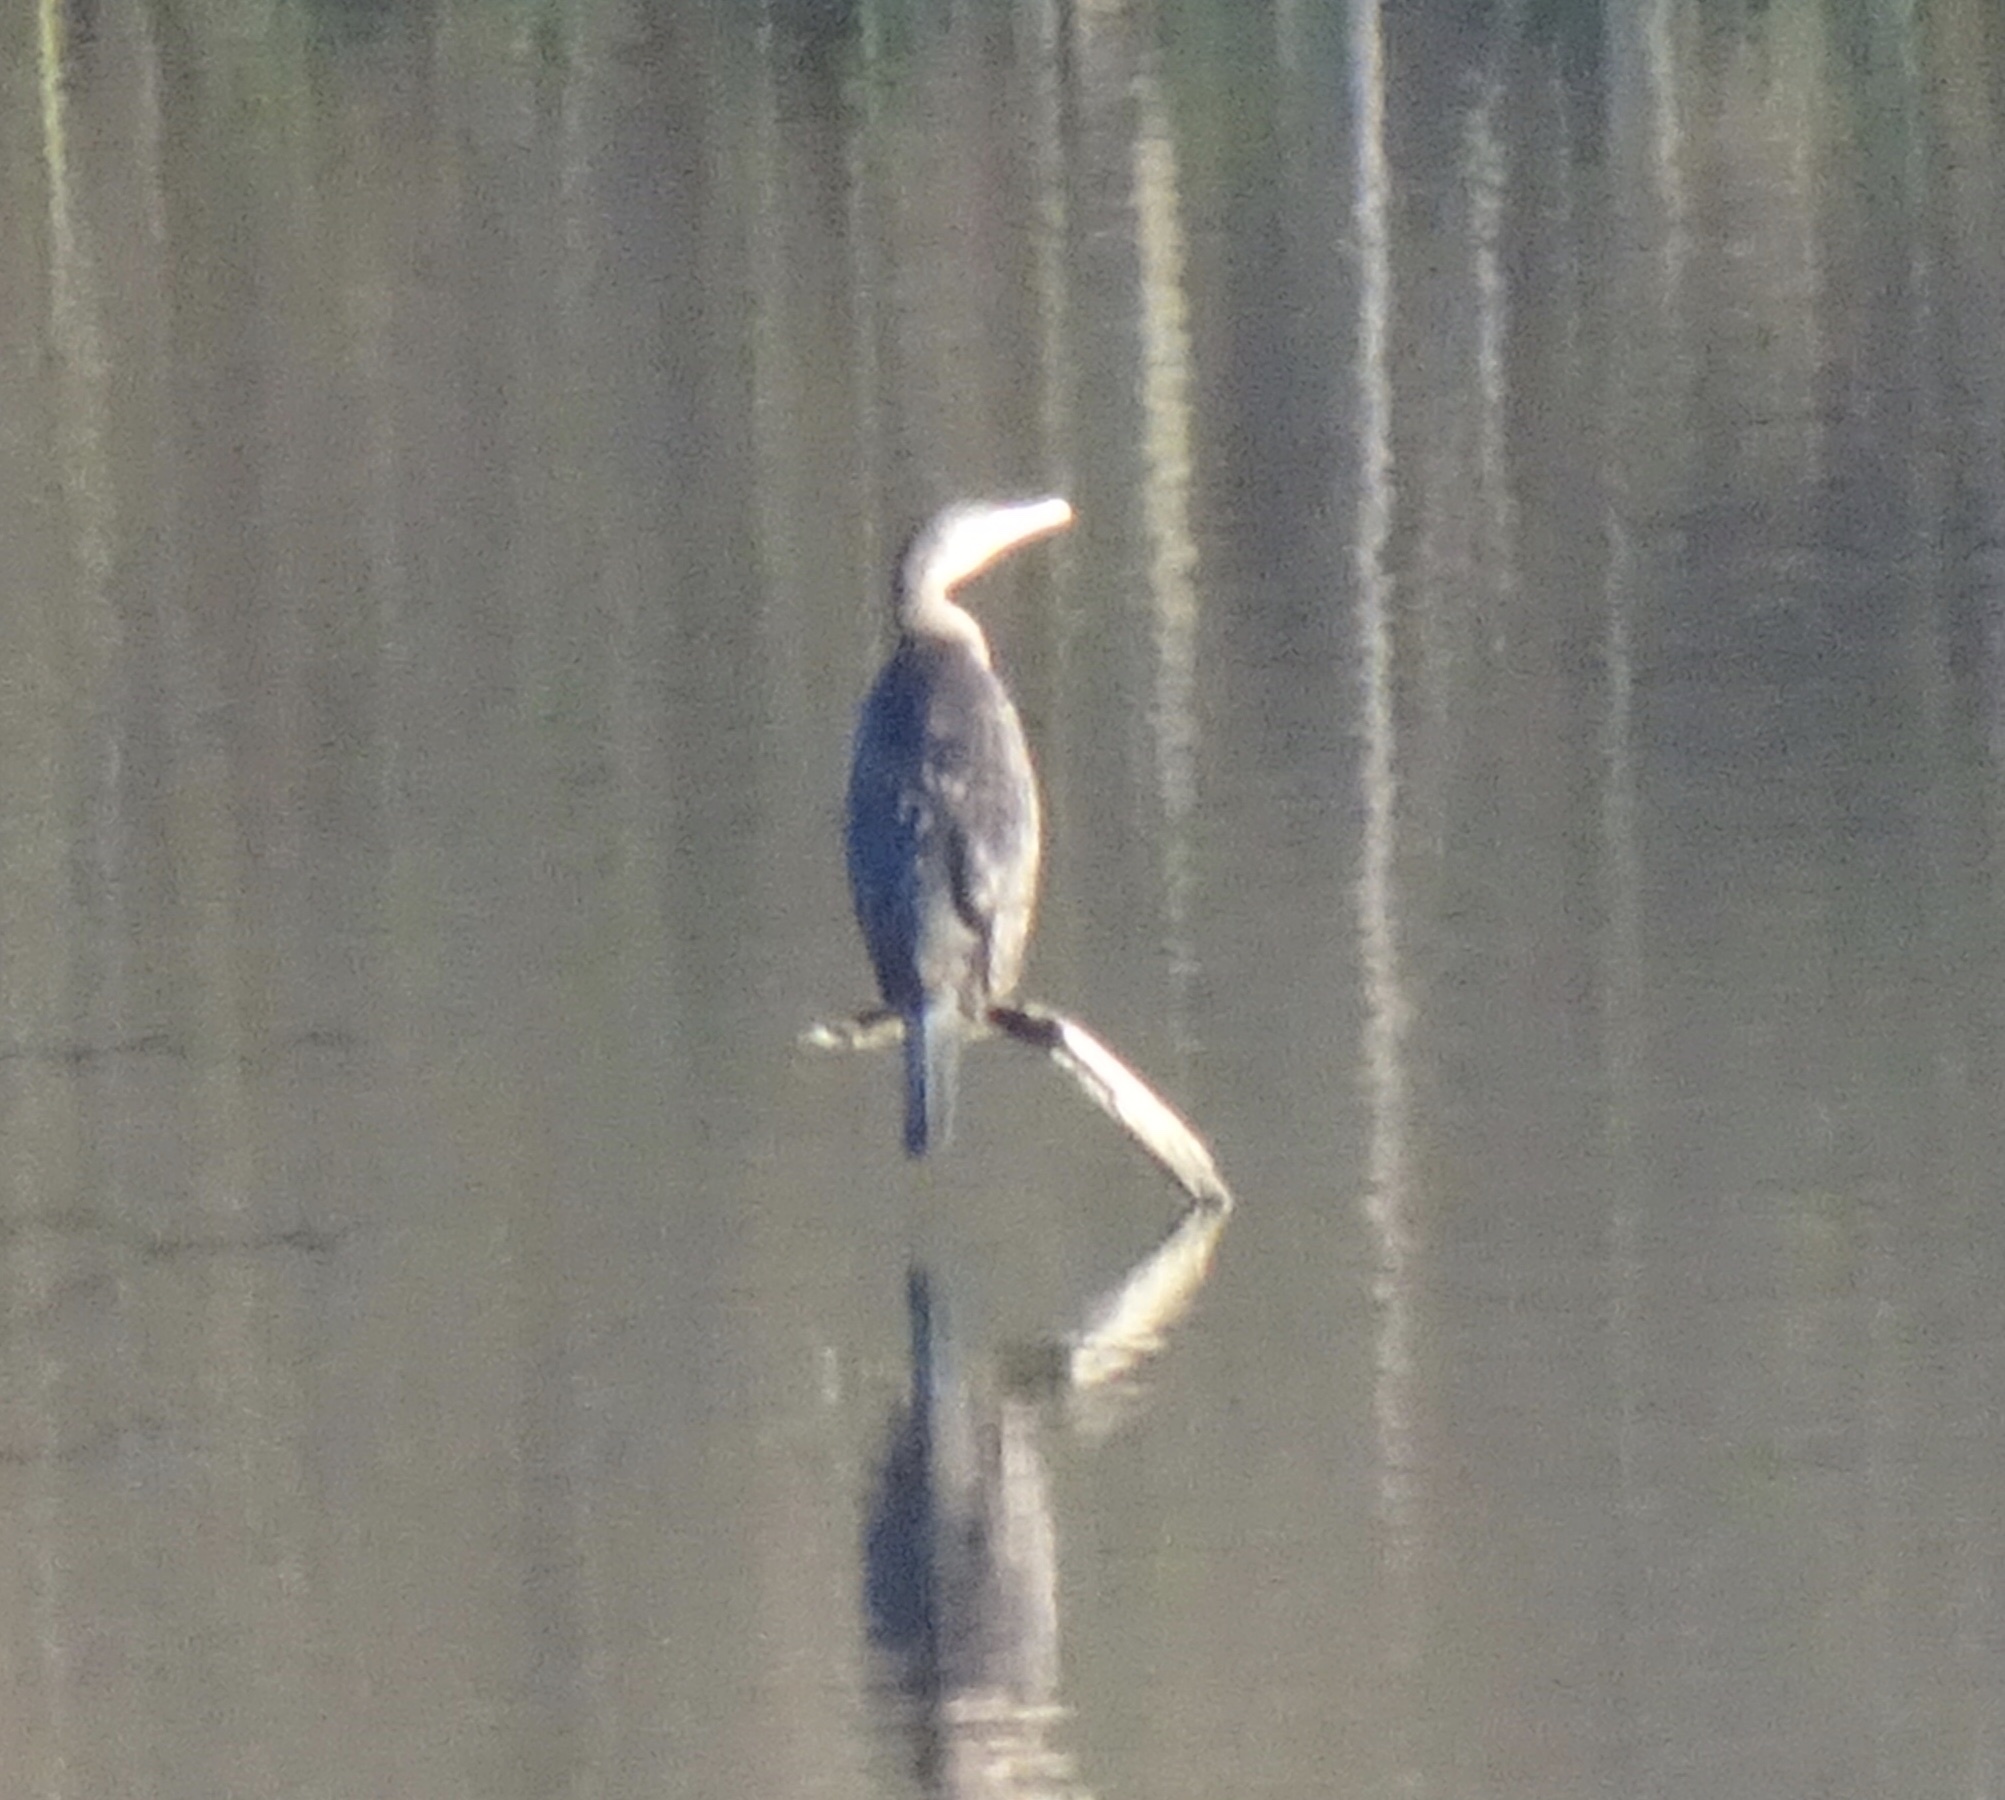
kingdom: Animalia
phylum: Chordata
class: Aves
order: Suliformes
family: Phalacrocoracidae
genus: Phalacrocorax
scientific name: Phalacrocorax carbo
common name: Great cormorant
